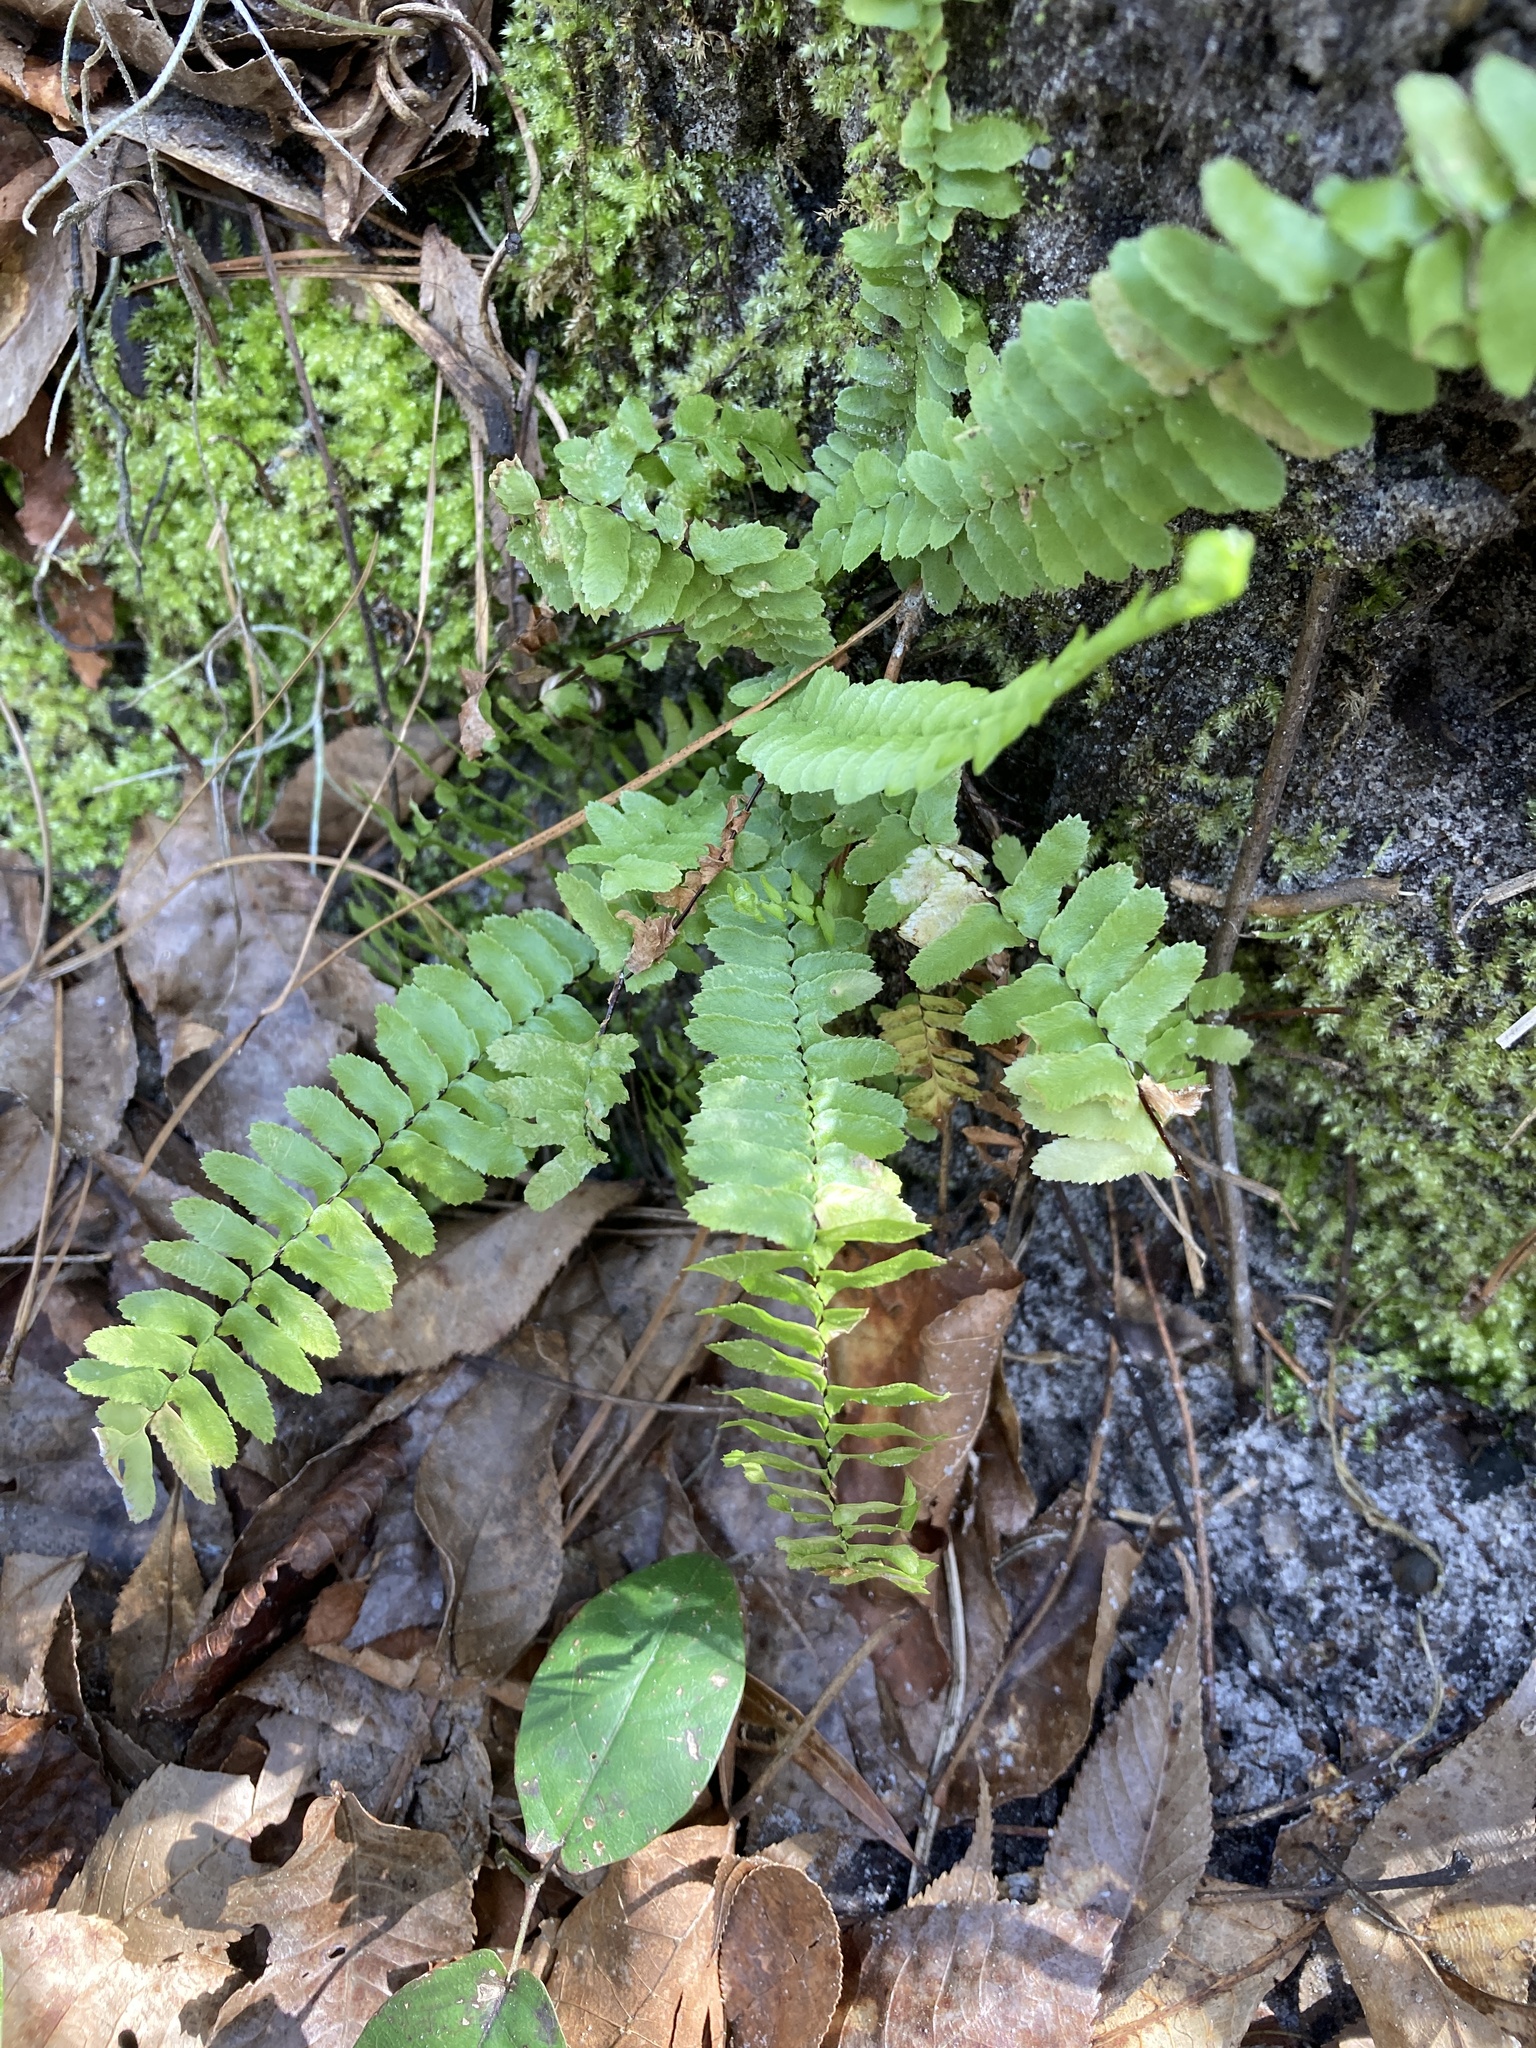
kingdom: Plantae
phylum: Tracheophyta
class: Polypodiopsida
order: Polypodiales
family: Aspleniaceae
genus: Asplenium
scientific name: Asplenium platyneuron
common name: Ebony spleenwort
